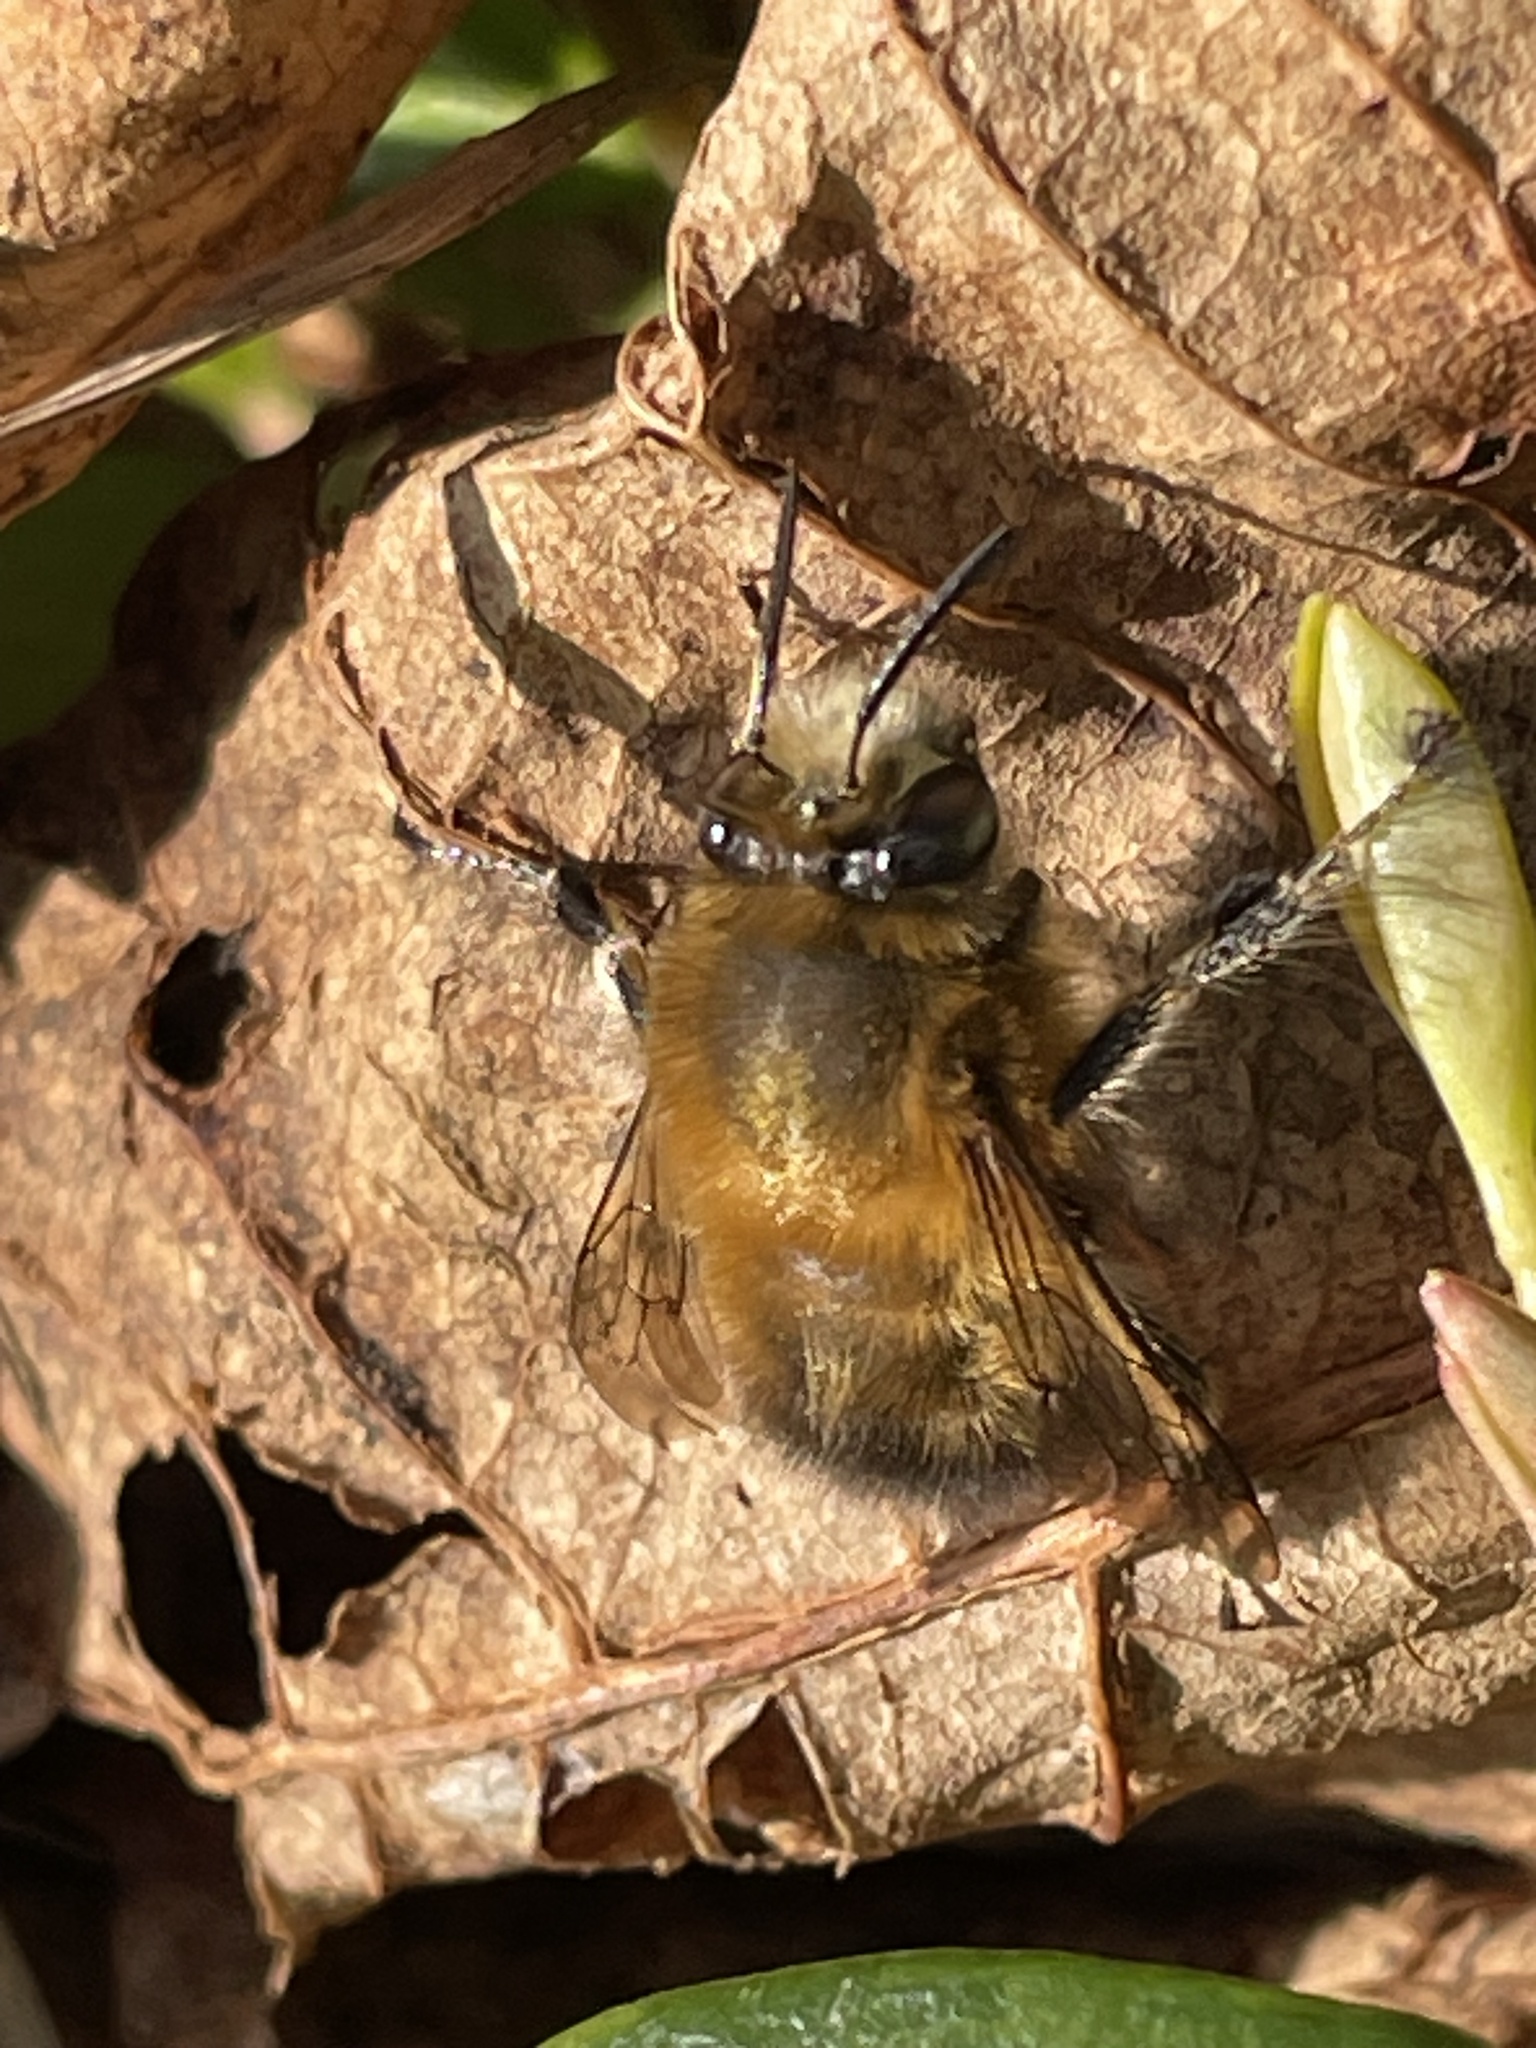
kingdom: Animalia
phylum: Arthropoda
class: Insecta
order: Hymenoptera
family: Apidae
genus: Anthophora
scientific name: Anthophora plumipes
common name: Hairy-footed flower bee
